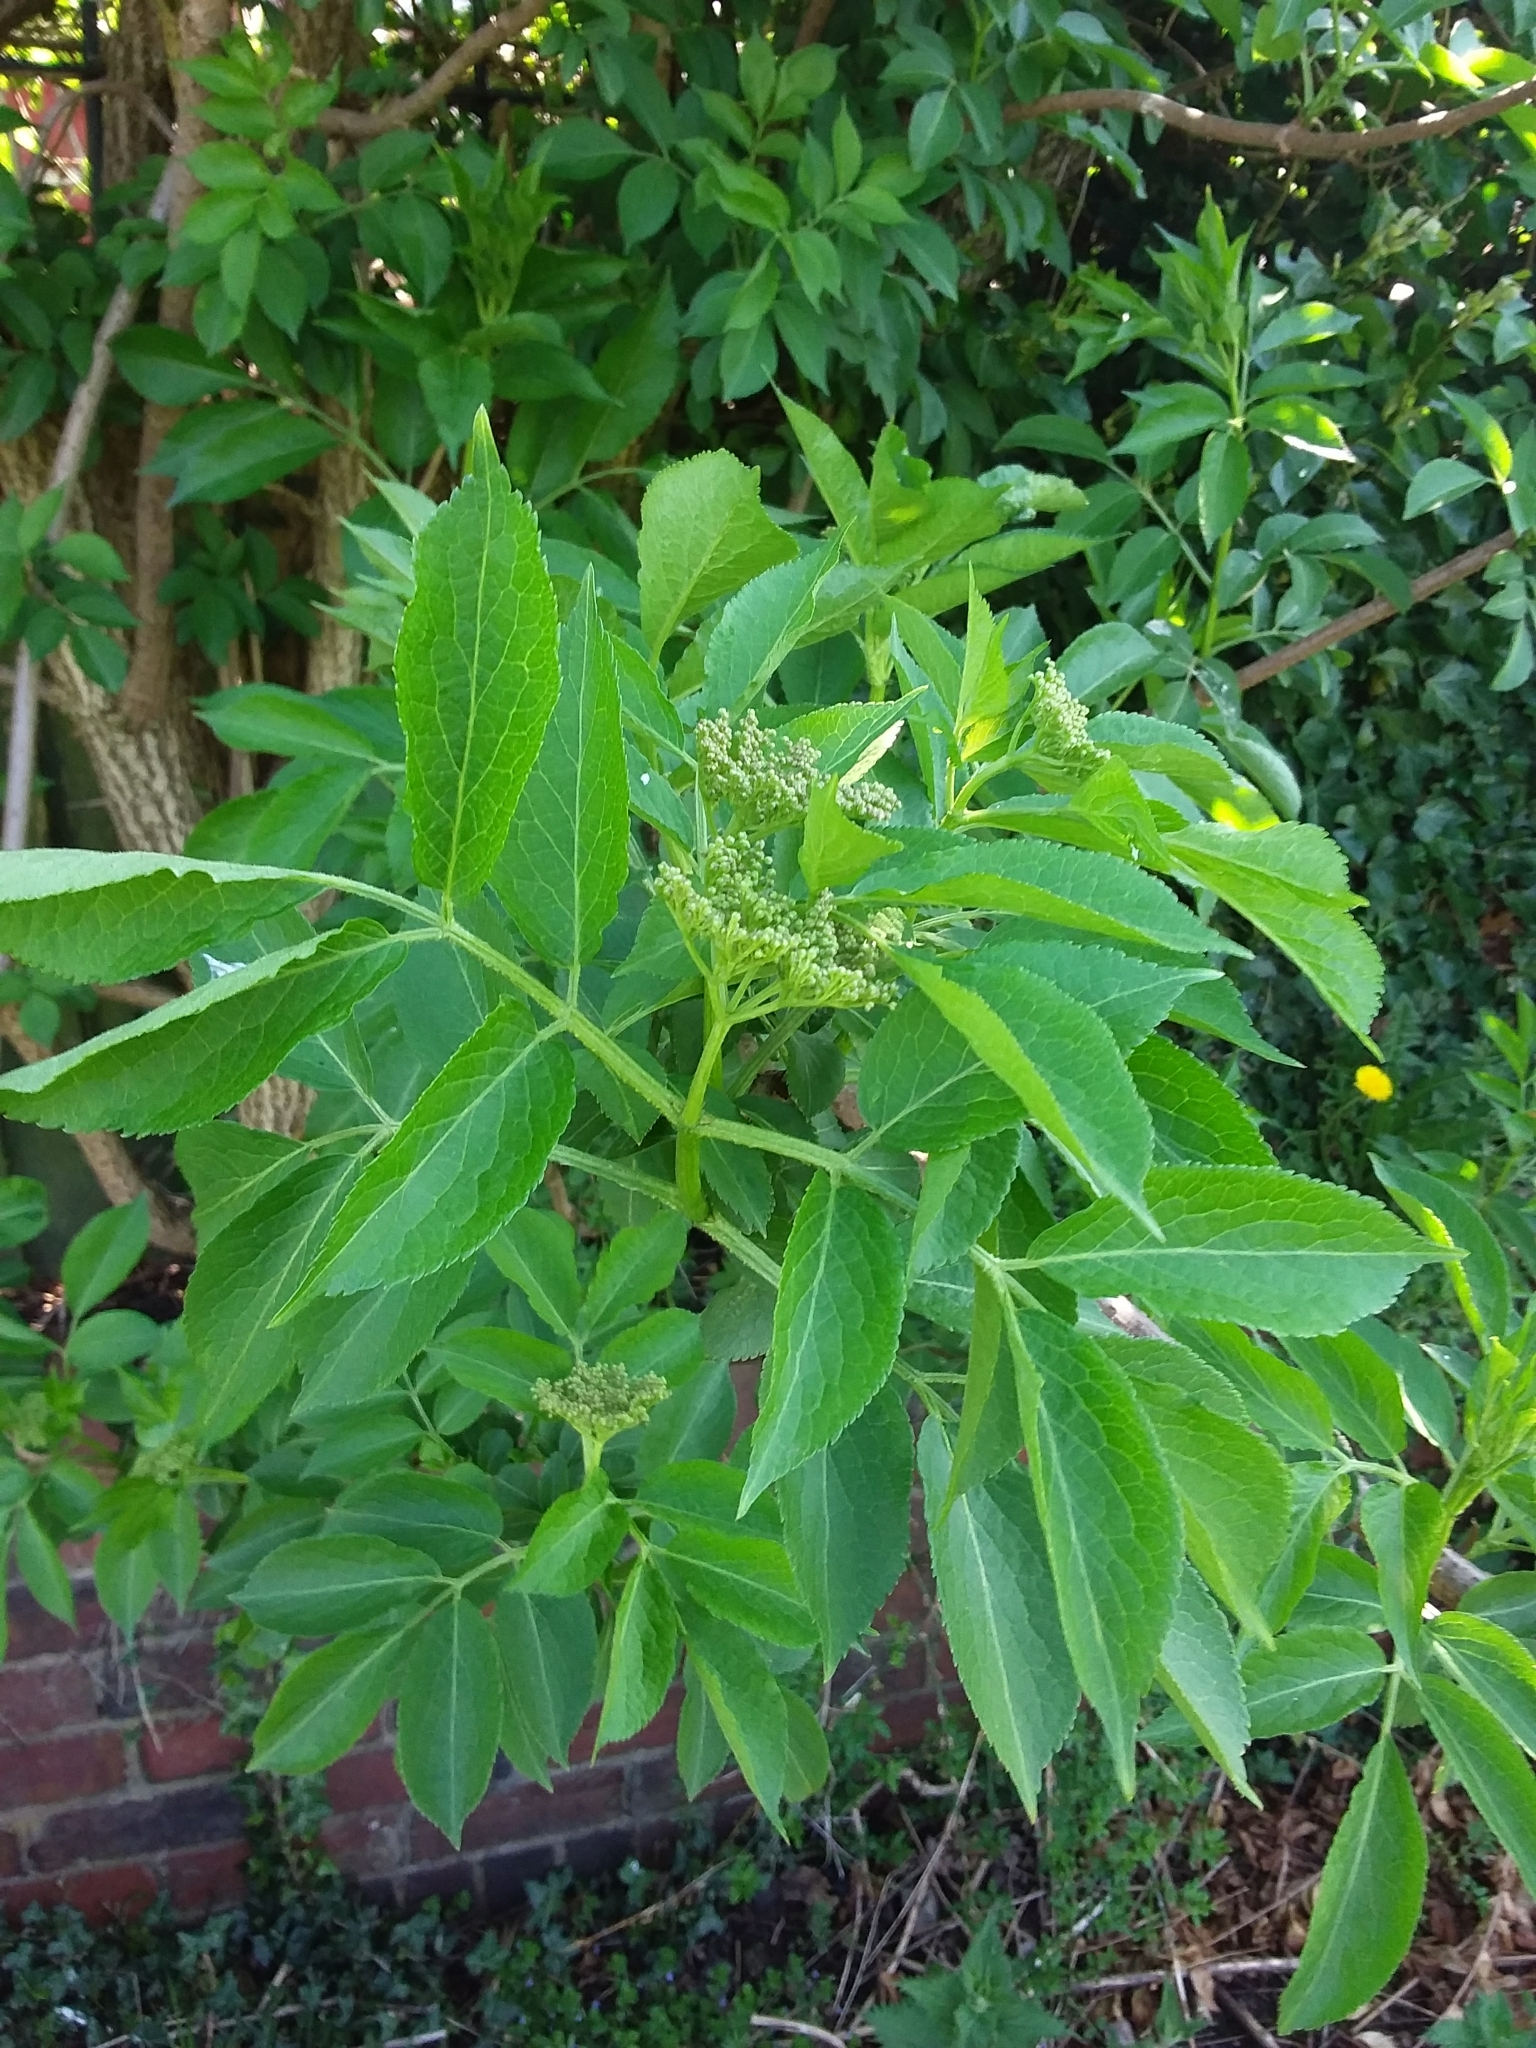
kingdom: Plantae
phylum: Tracheophyta
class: Magnoliopsida
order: Dipsacales
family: Viburnaceae
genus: Sambucus
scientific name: Sambucus nigra
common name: Elder
